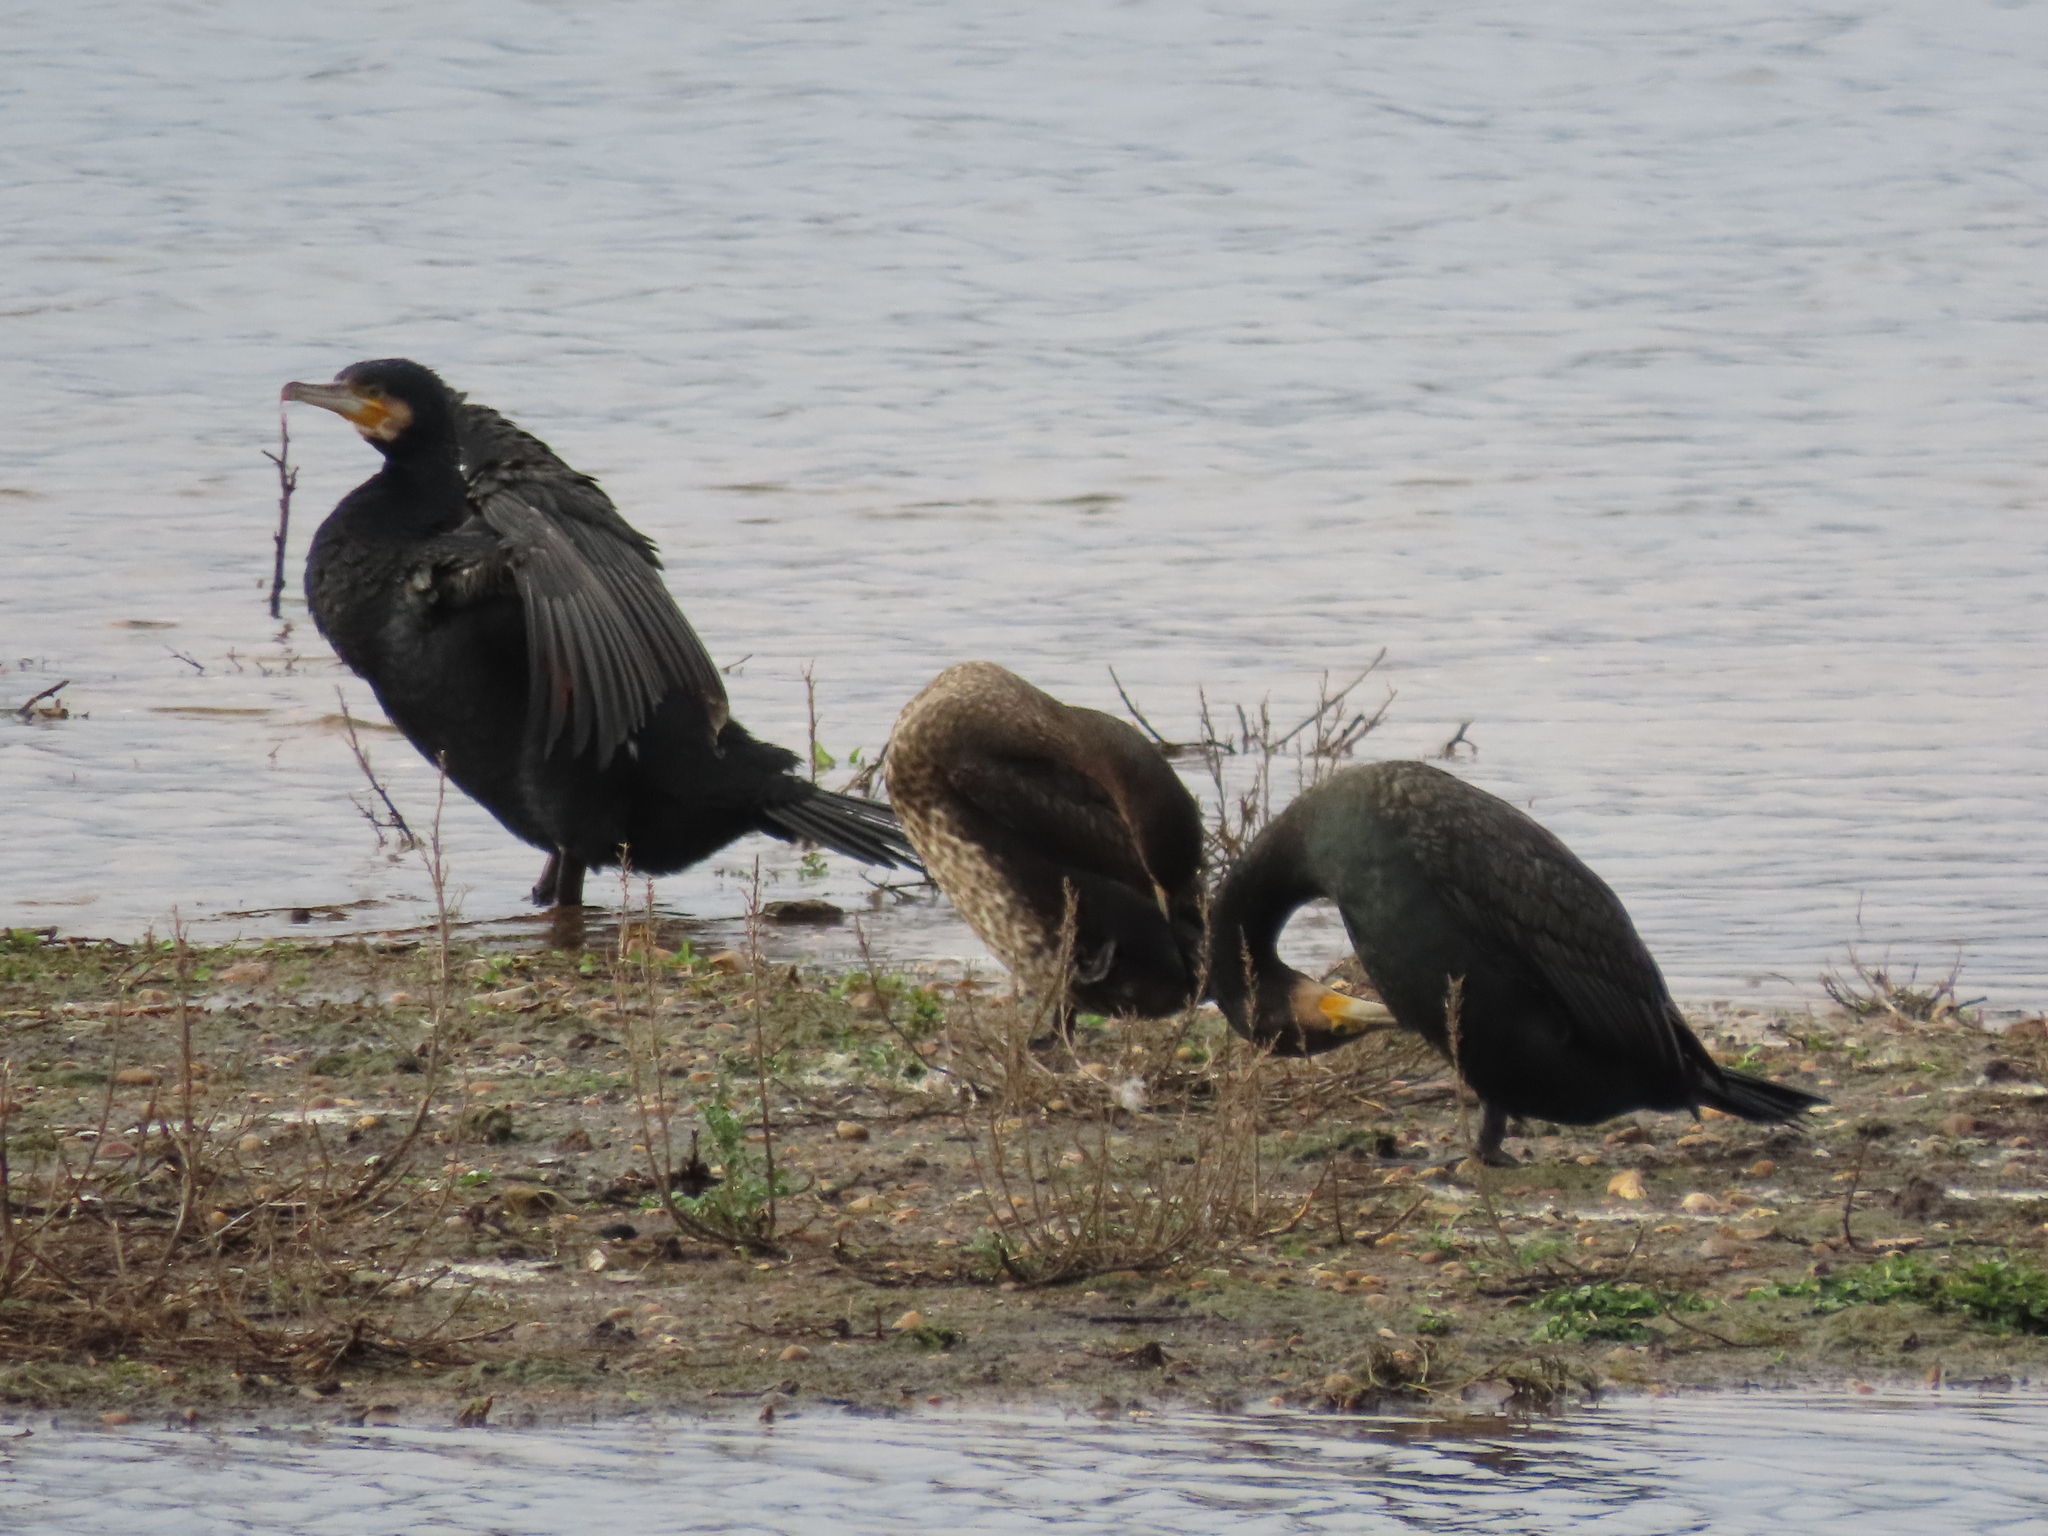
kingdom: Animalia
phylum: Chordata
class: Aves
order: Suliformes
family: Phalacrocoracidae
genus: Phalacrocorax
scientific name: Phalacrocorax carbo
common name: Great cormorant
